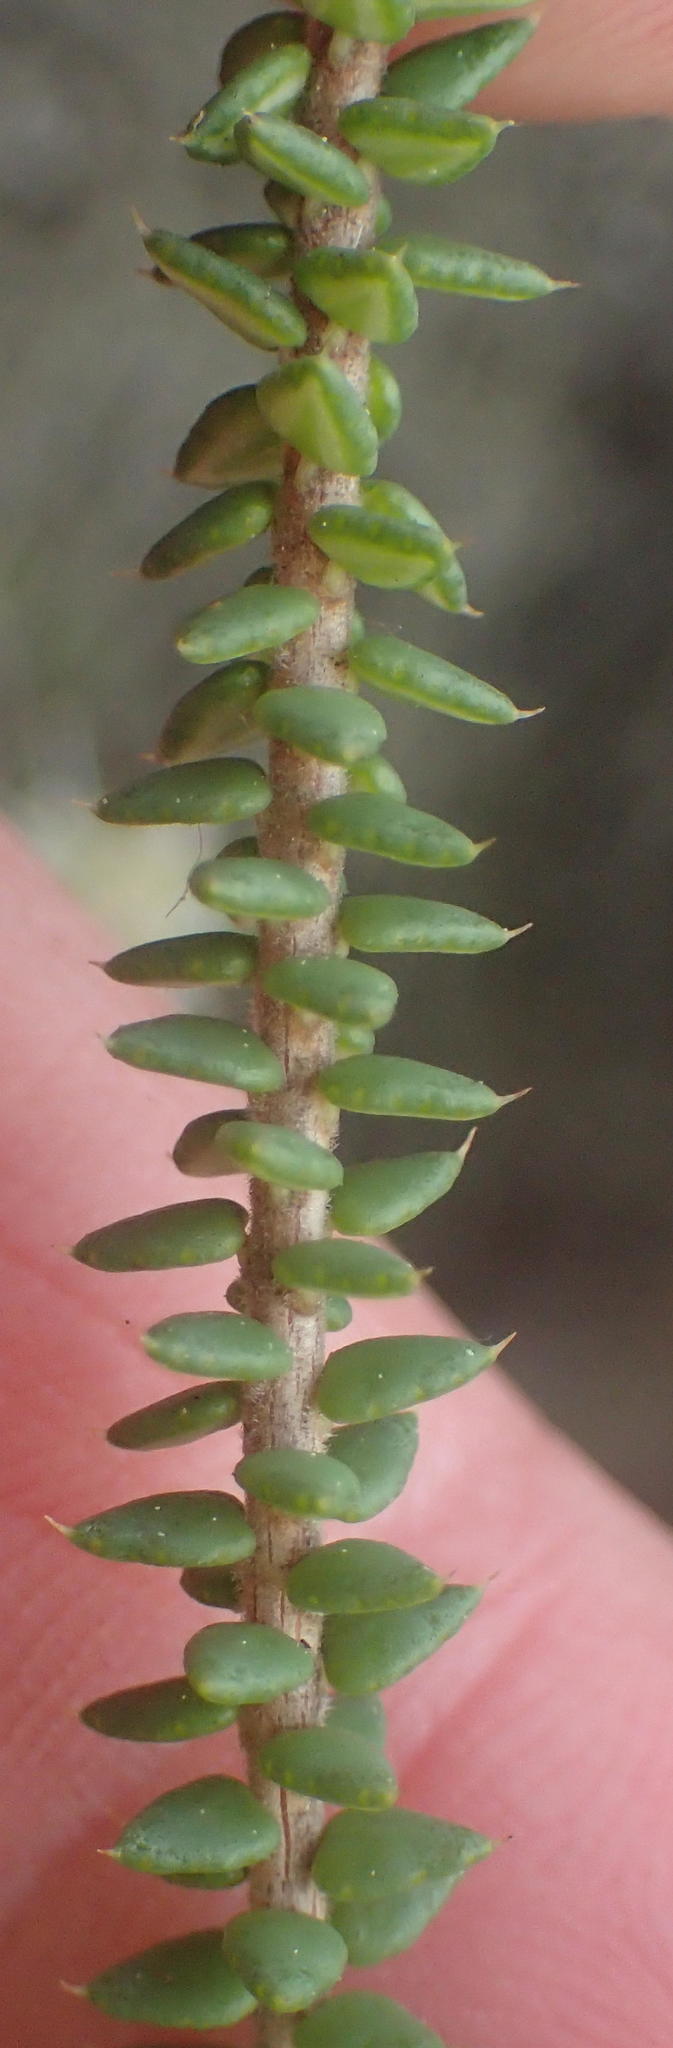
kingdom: Plantae
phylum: Tracheophyta
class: Magnoliopsida
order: Sapindales
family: Rutaceae
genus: Agathosma
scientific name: Agathosma apiculata
